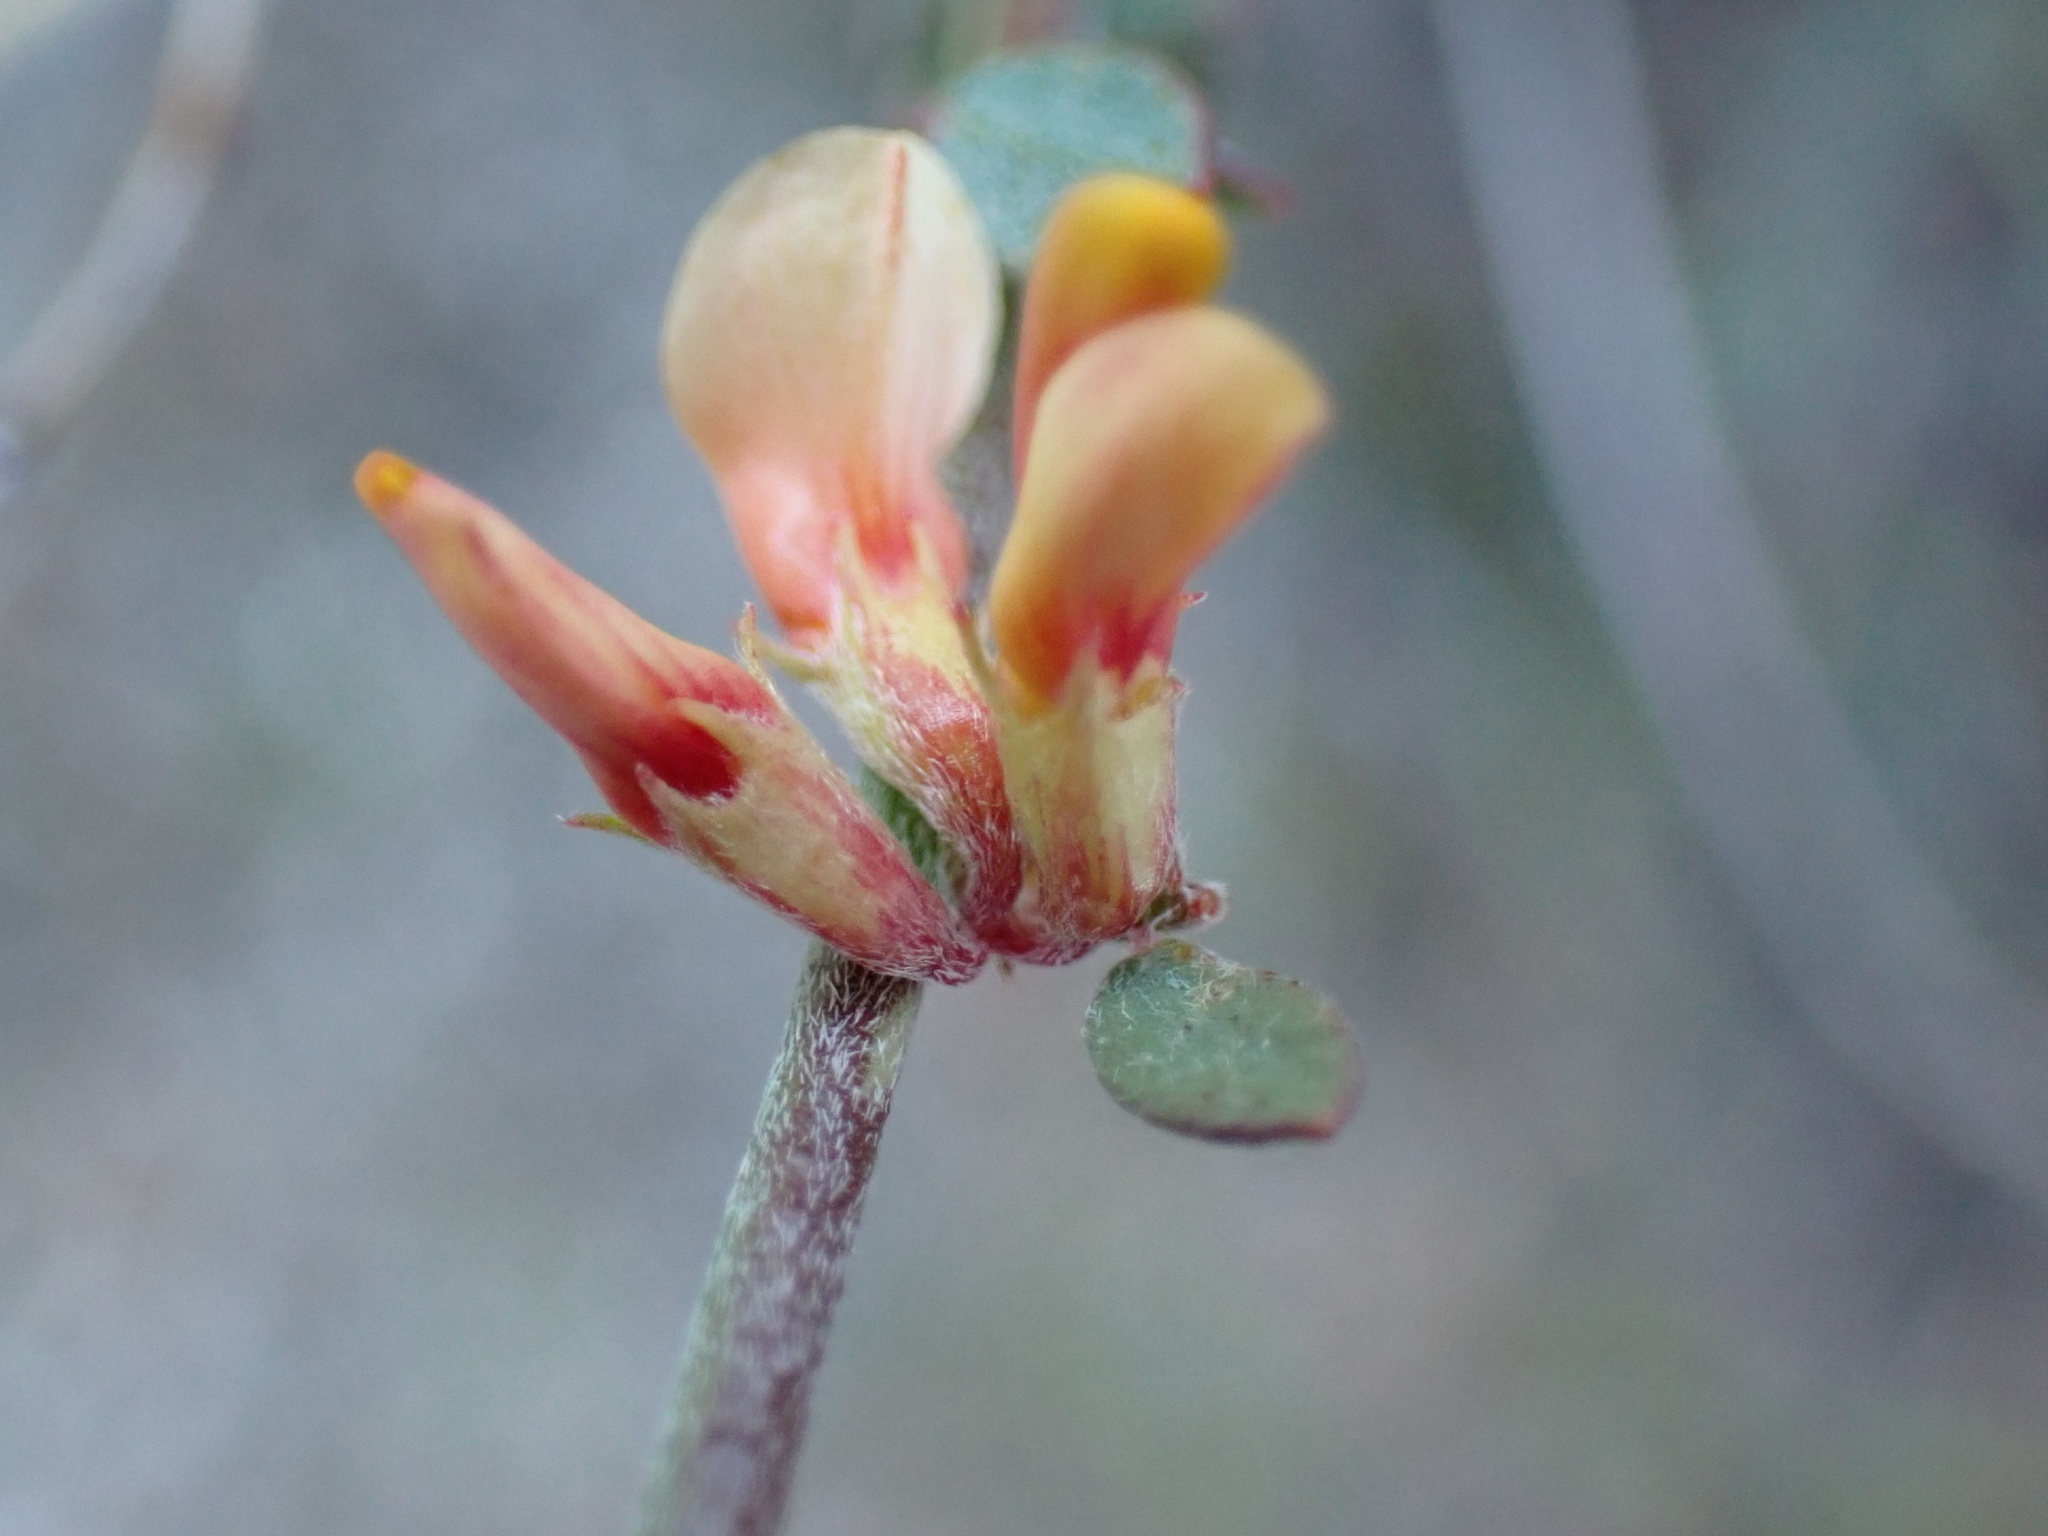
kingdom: Plantae
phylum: Tracheophyta
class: Magnoliopsida
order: Fabales
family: Fabaceae
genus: Acmispon
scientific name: Acmispon glaber
